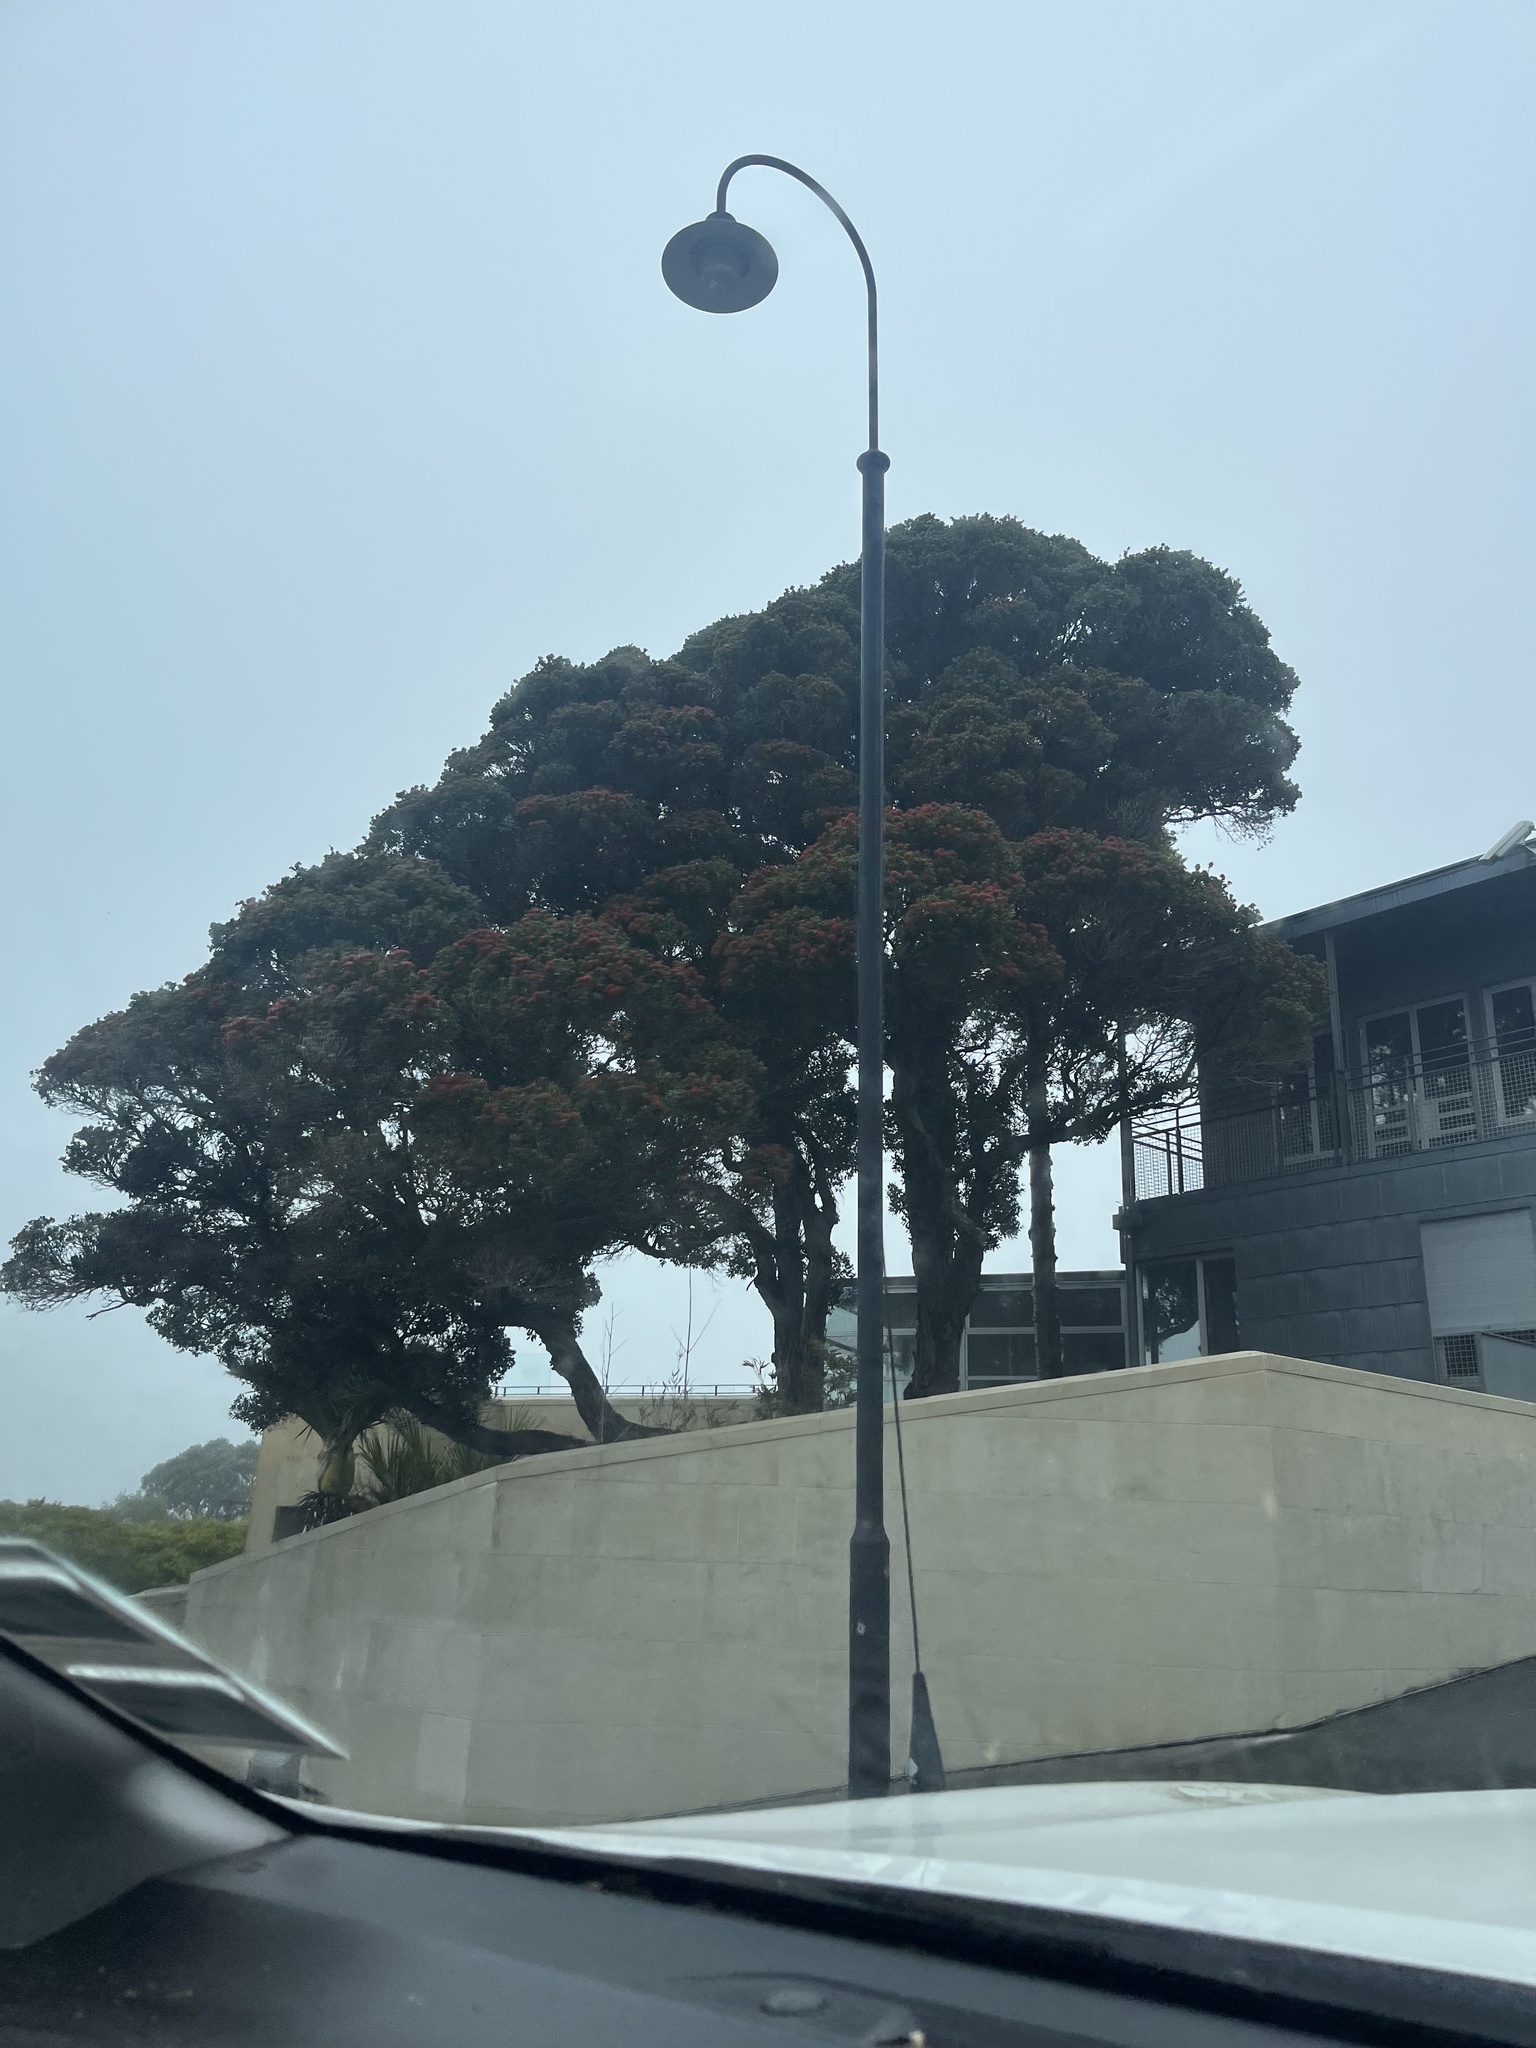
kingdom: Plantae
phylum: Tracheophyta
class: Magnoliopsida
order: Myrtales
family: Myrtaceae
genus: Metrosideros
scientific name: Metrosideros robusta
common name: Northern rata
